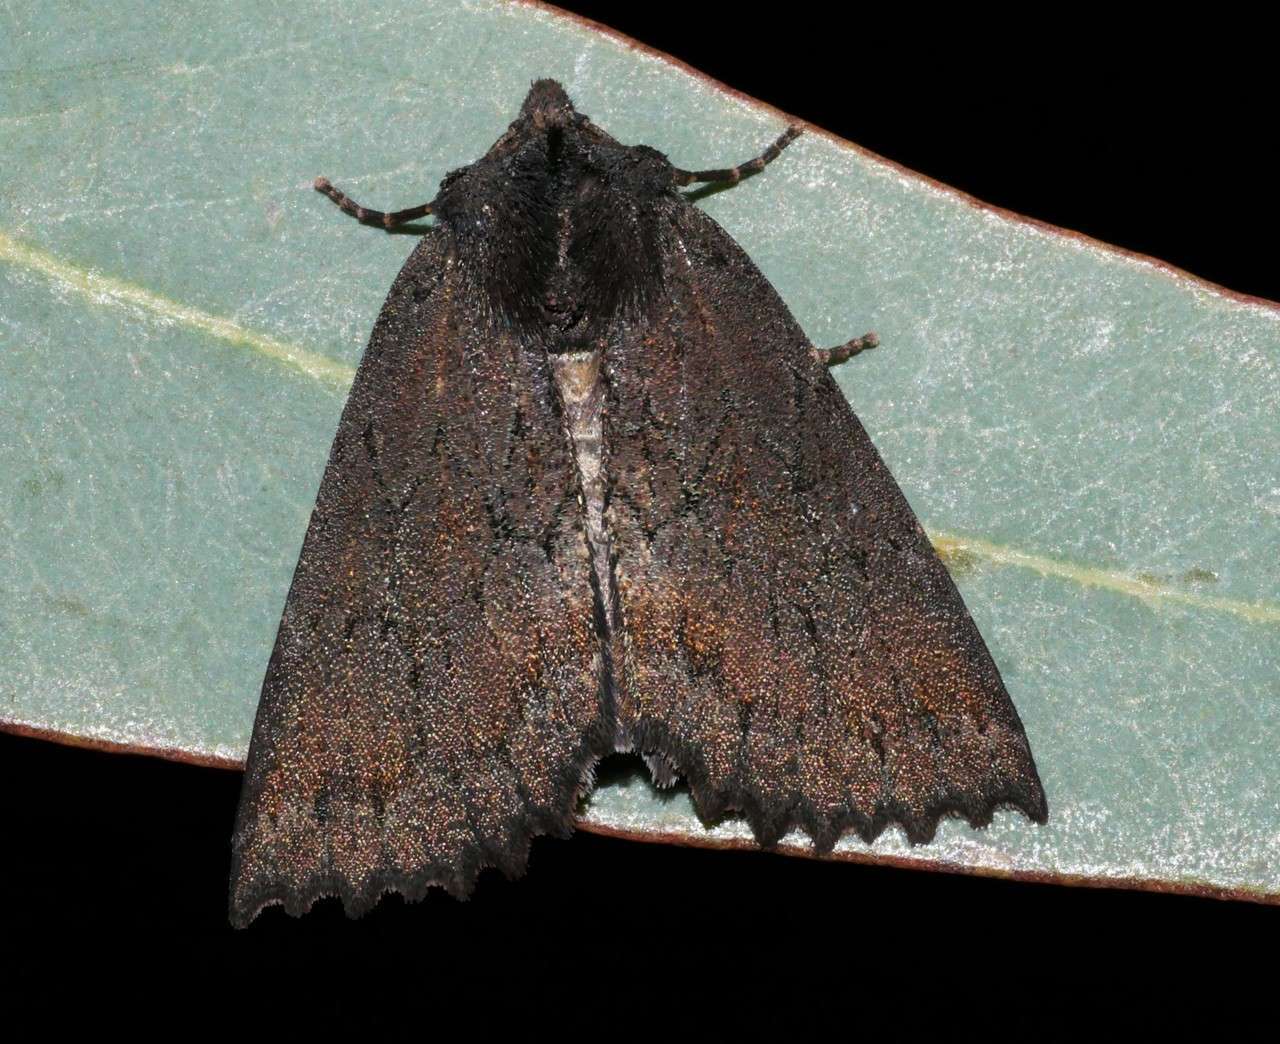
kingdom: Animalia
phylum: Arthropoda
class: Insecta
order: Lepidoptera
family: Geometridae
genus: Nisista
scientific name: Nisista serrata
